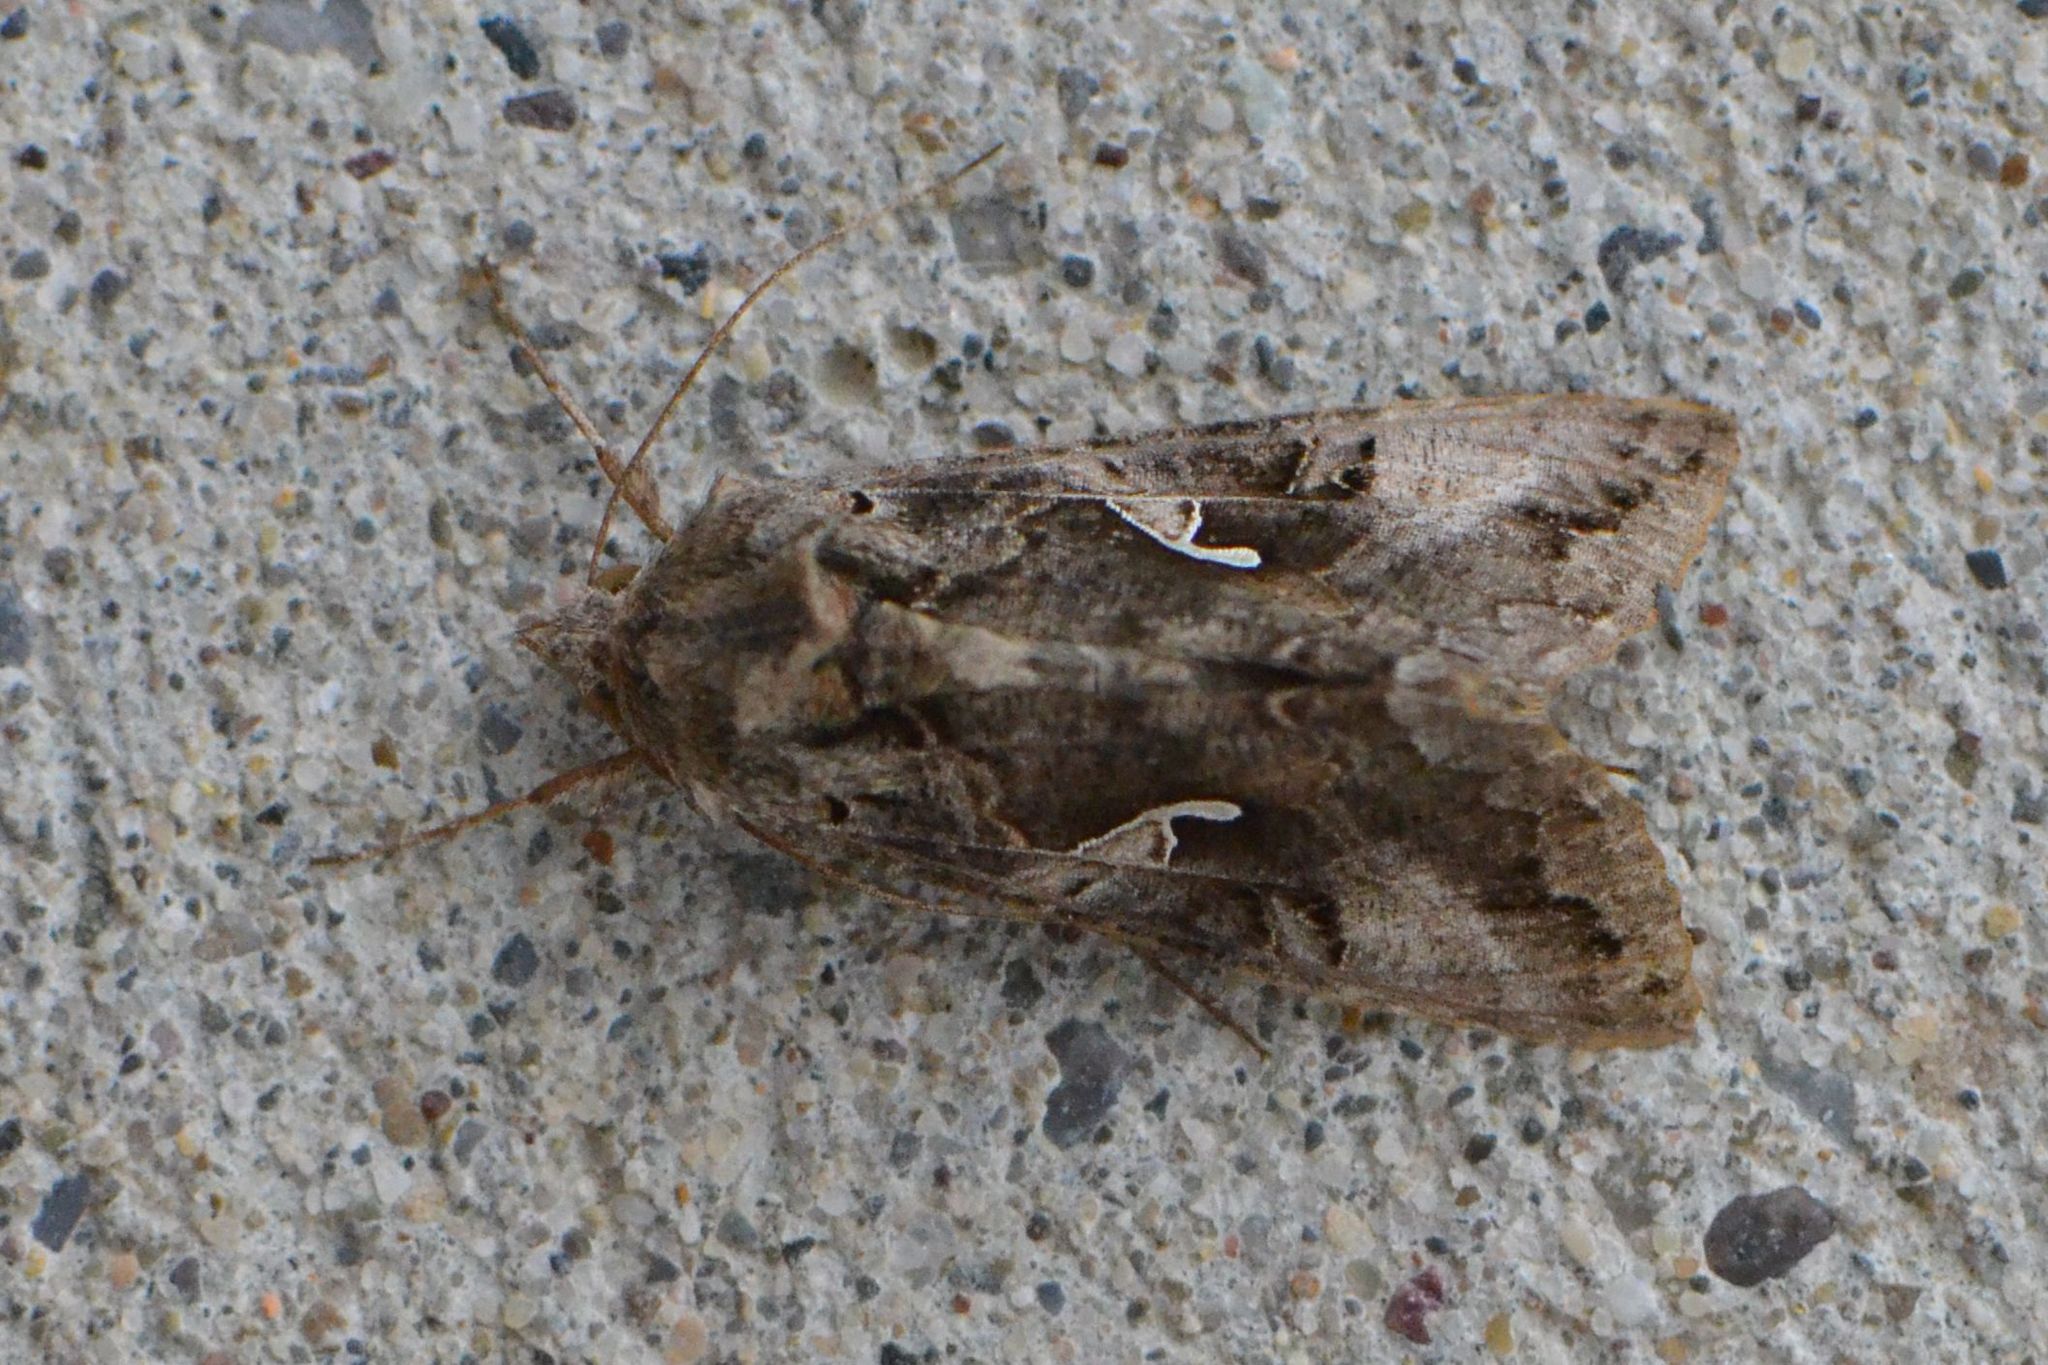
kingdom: Animalia
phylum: Arthropoda
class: Insecta
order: Lepidoptera
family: Noctuidae
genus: Autographa
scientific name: Autographa gamma
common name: Silver y
